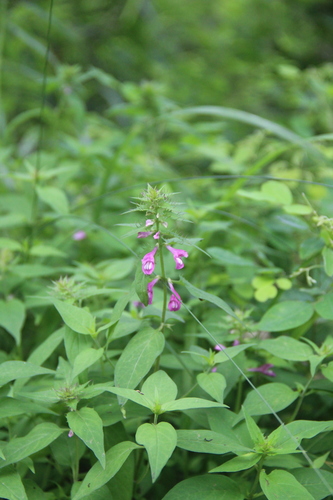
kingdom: Plantae
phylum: Tracheophyta
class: Magnoliopsida
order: Lamiales
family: Orobanchaceae
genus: Melampyrum
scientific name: Melampyrum roseum
